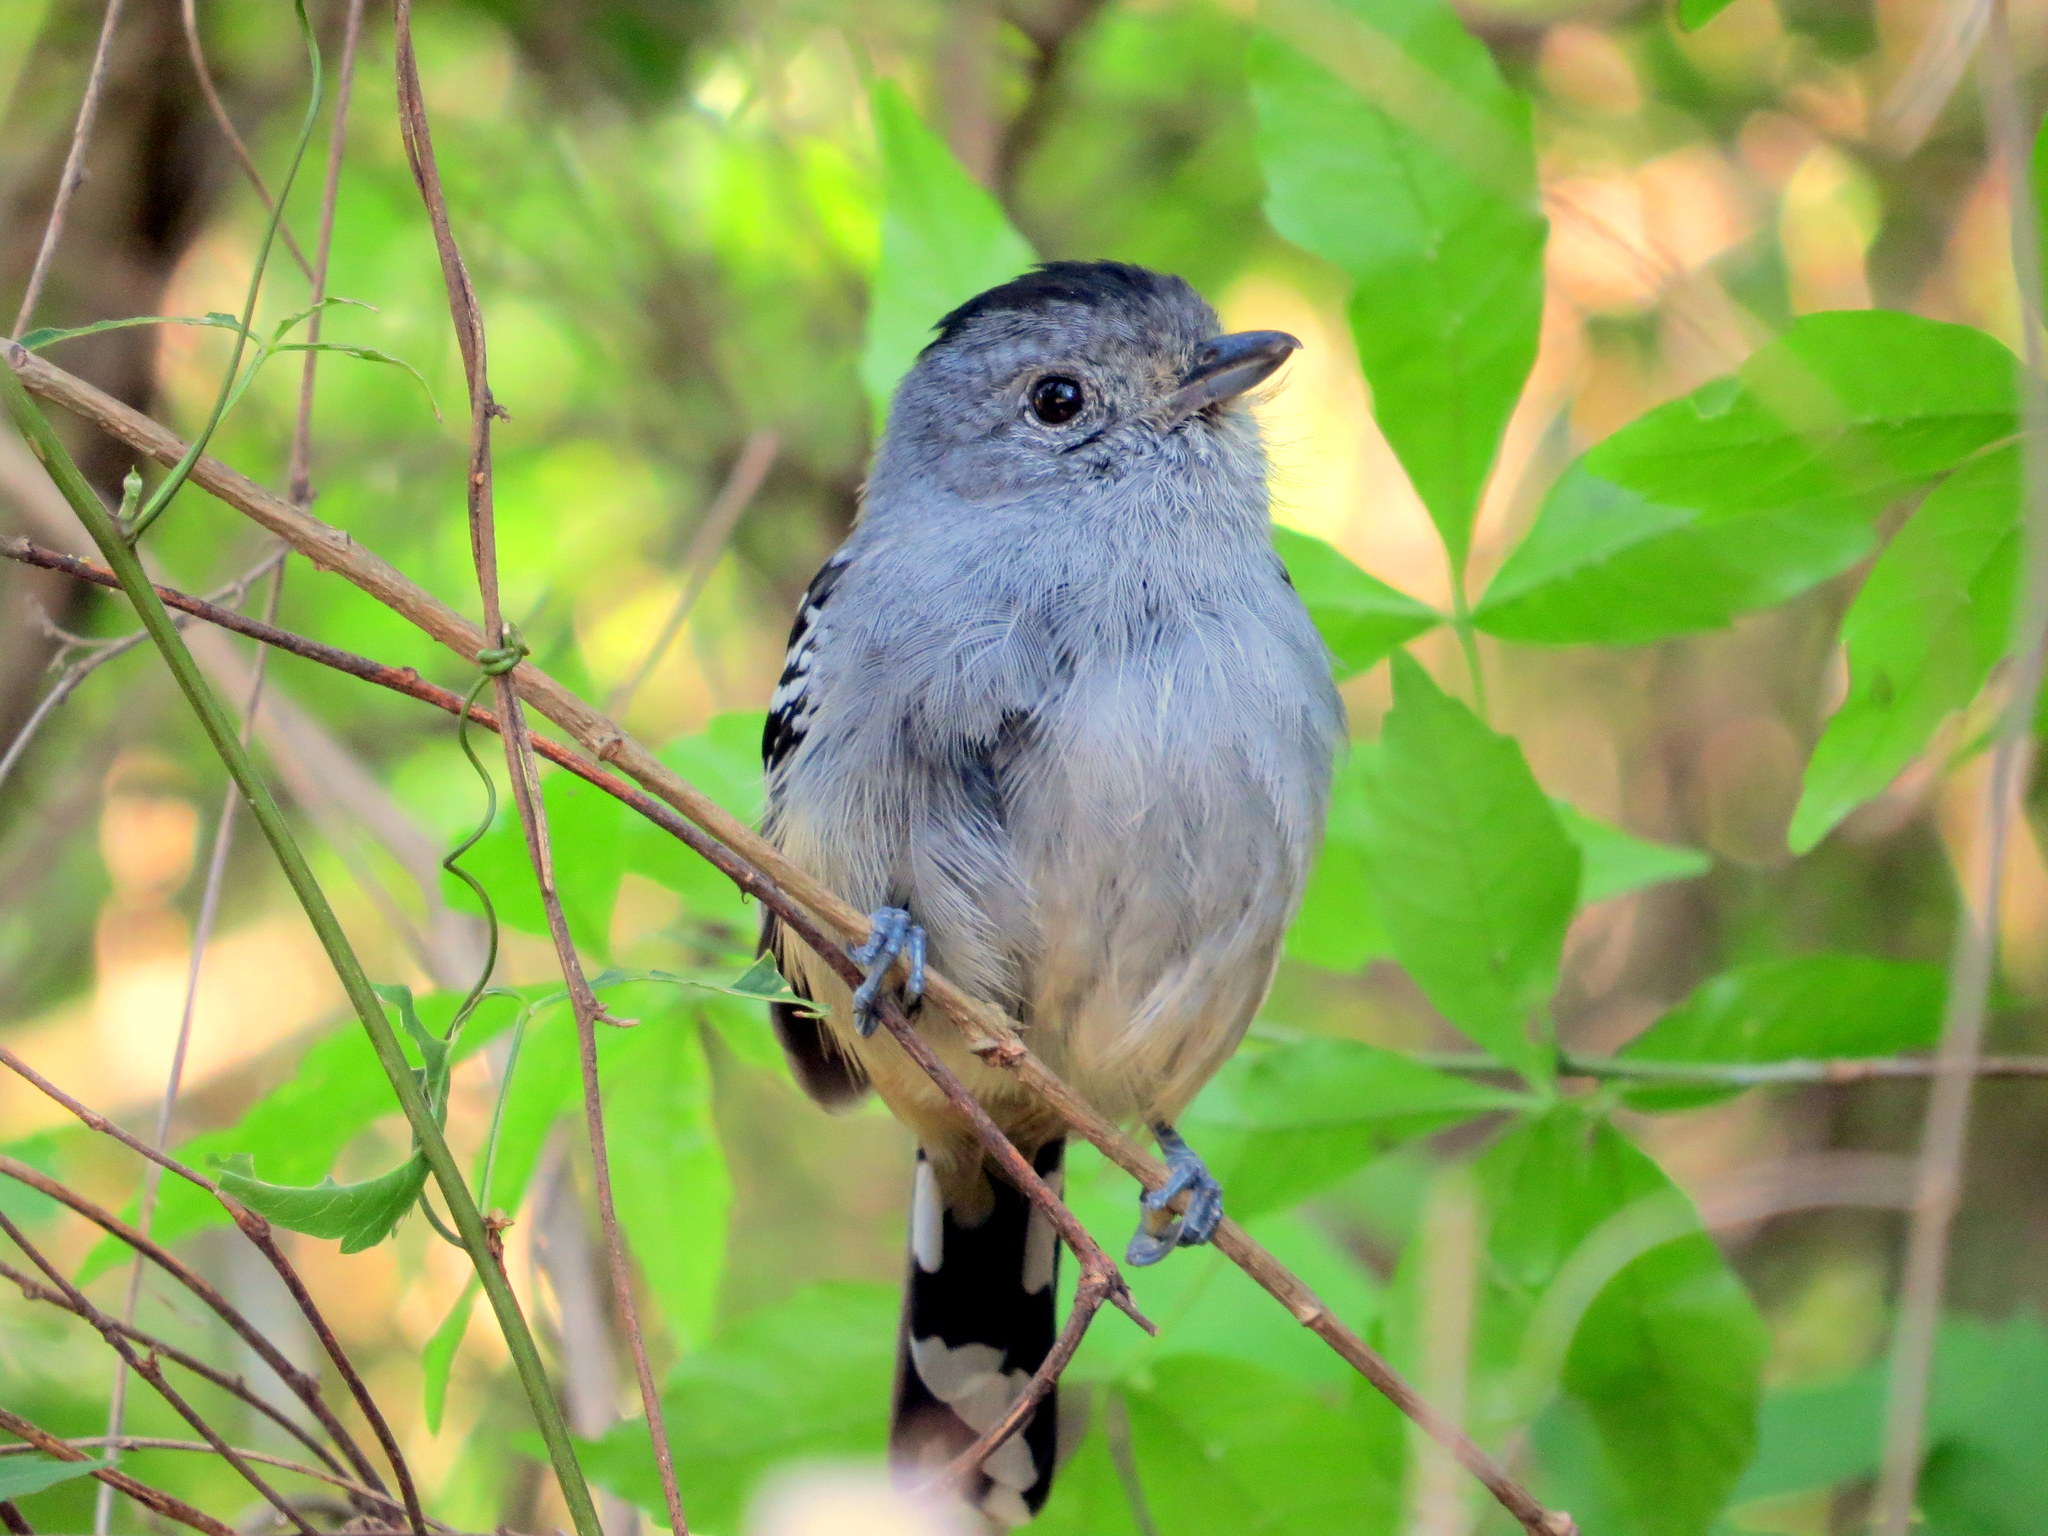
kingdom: Animalia
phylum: Chordata
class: Aves
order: Passeriformes
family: Thamnophilidae
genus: Thamnophilus
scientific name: Thamnophilus caerulescens
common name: Variable antshrike
